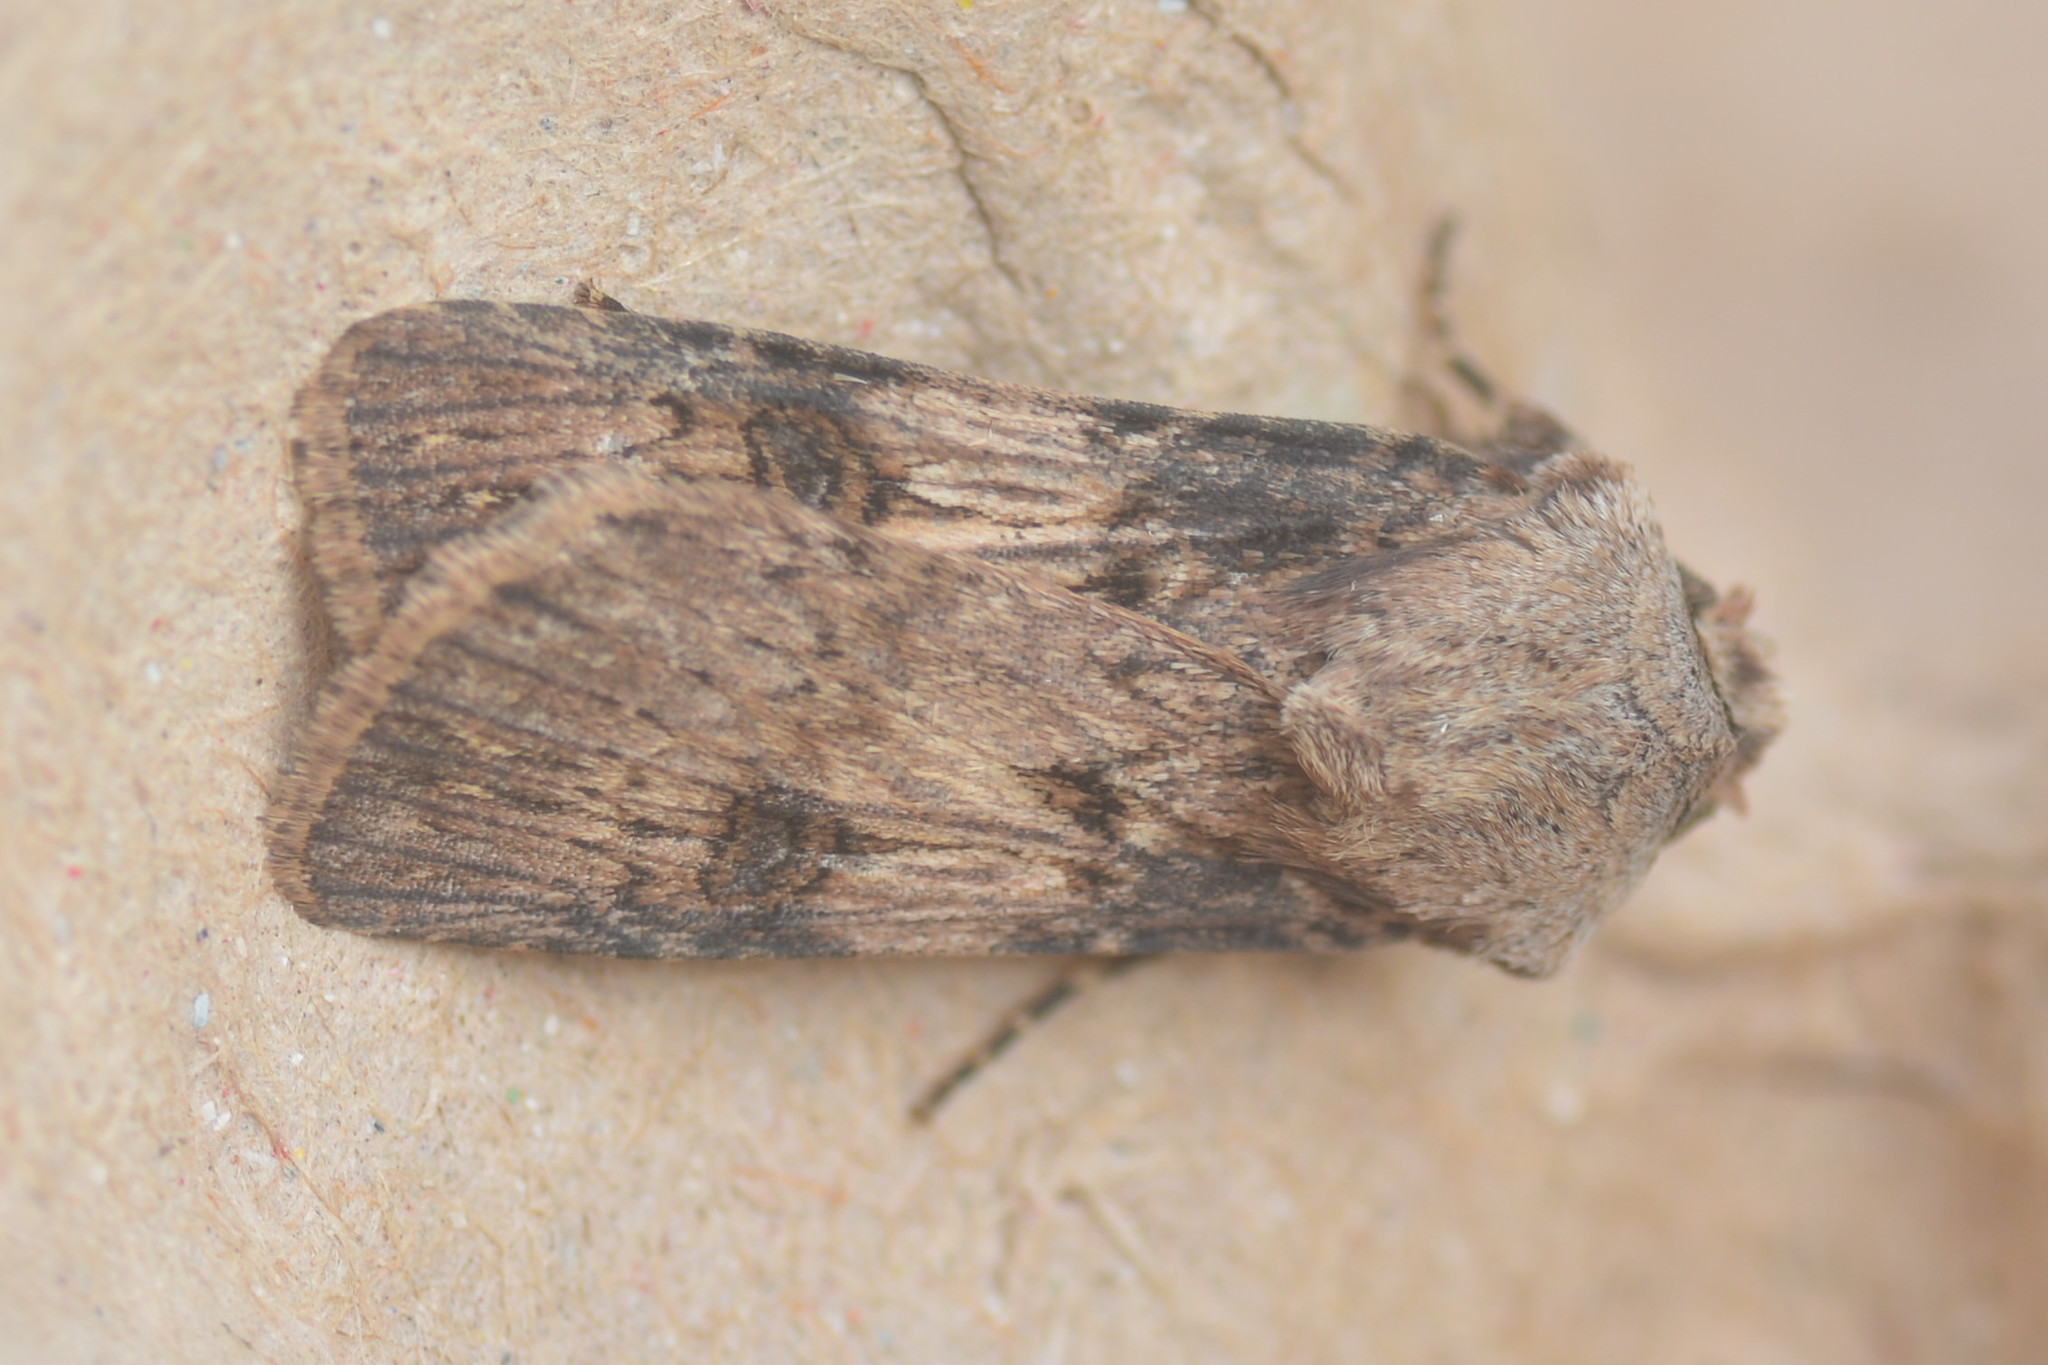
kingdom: Animalia
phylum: Arthropoda
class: Insecta
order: Lepidoptera
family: Noctuidae
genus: Agrotis
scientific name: Agrotis puta
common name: Shuttle-shaped dart
